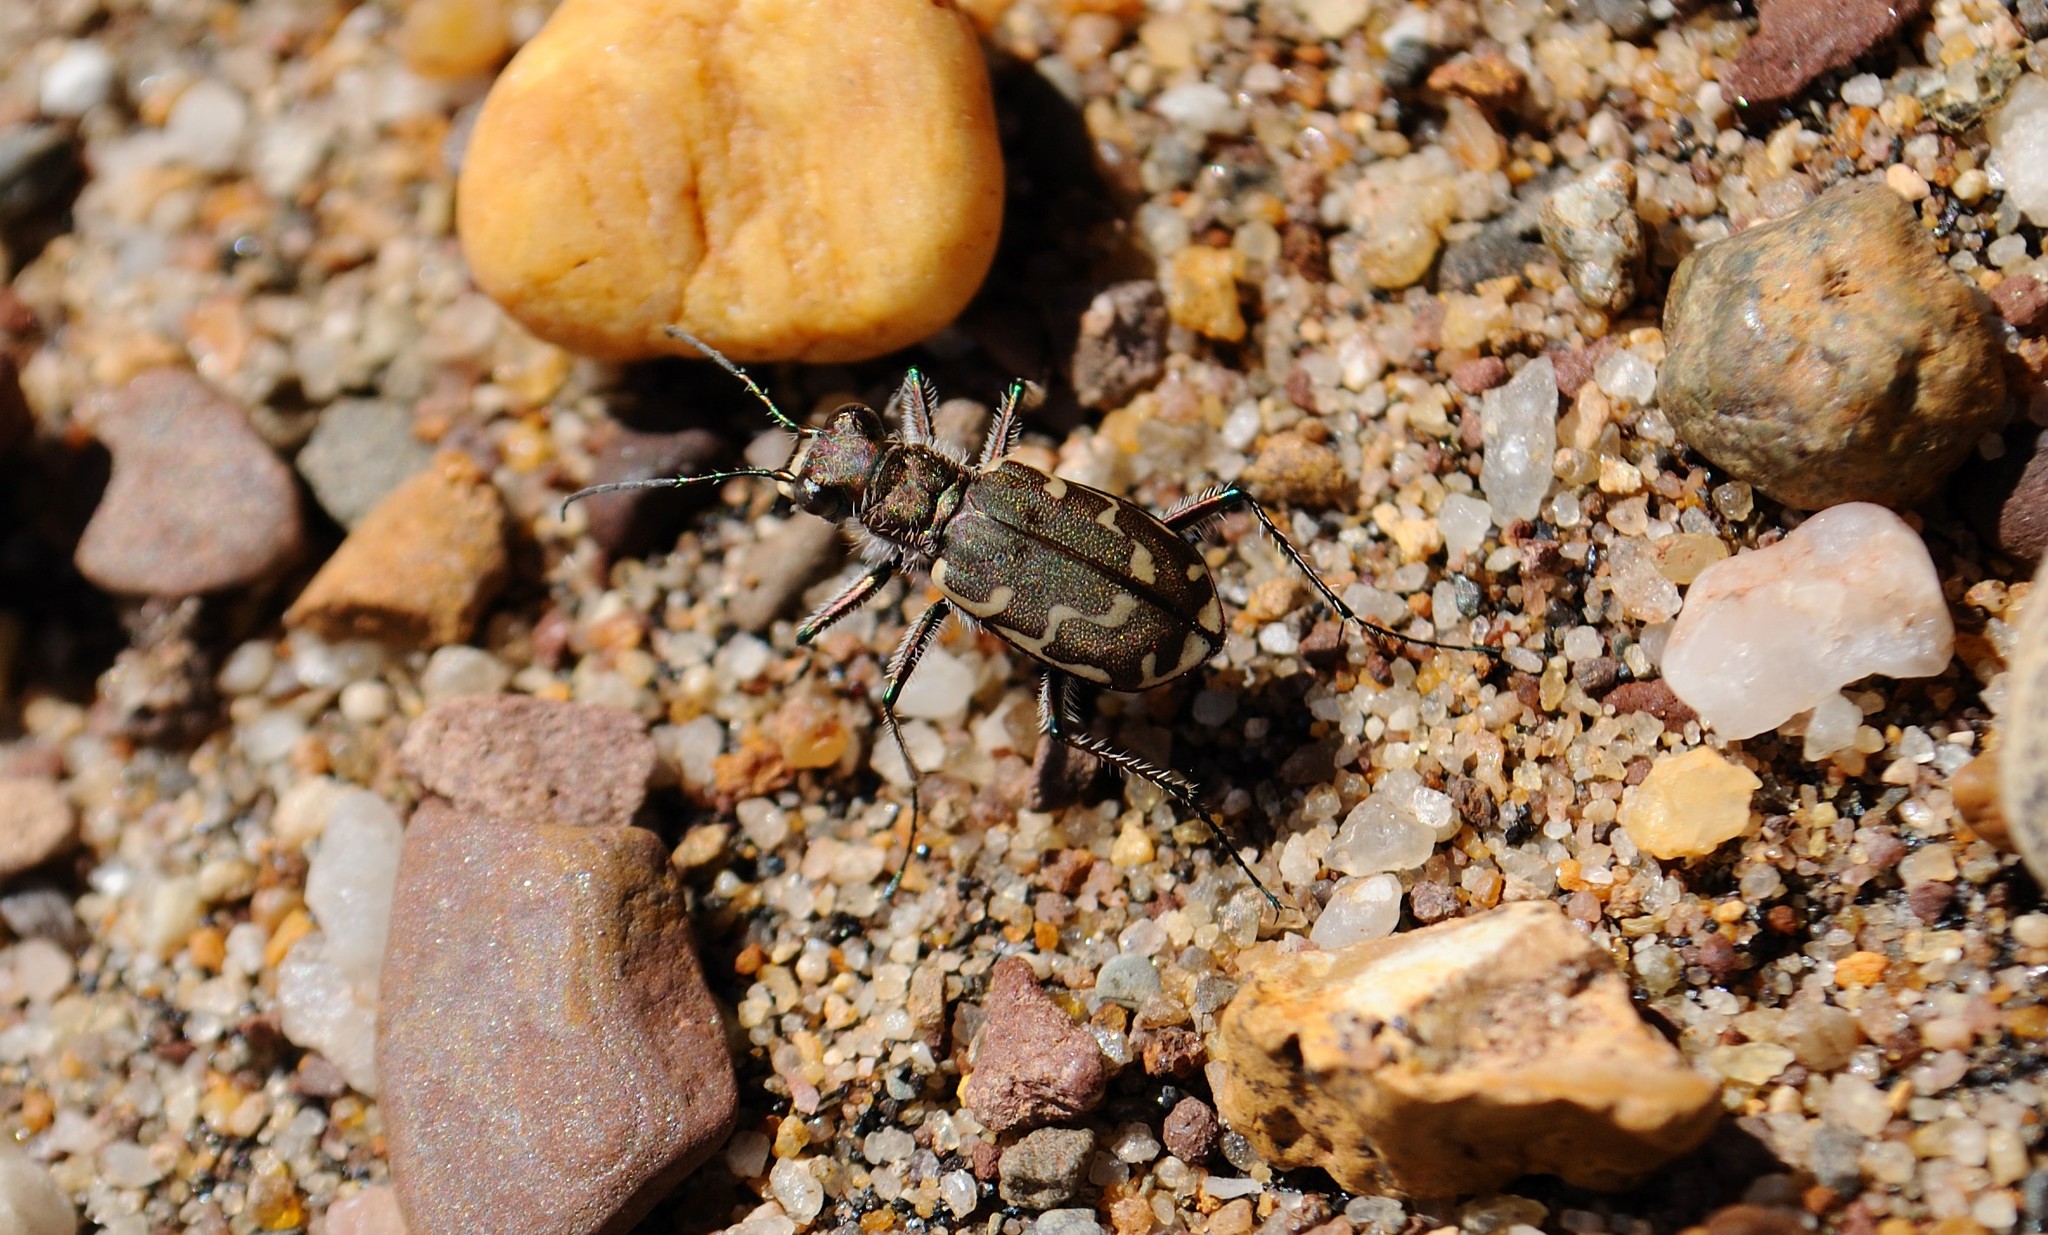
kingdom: Animalia
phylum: Arthropoda
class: Insecta
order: Coleoptera
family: Carabidae
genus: Cicindela
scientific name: Cicindela repanda
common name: Bronzed tiger beetle
